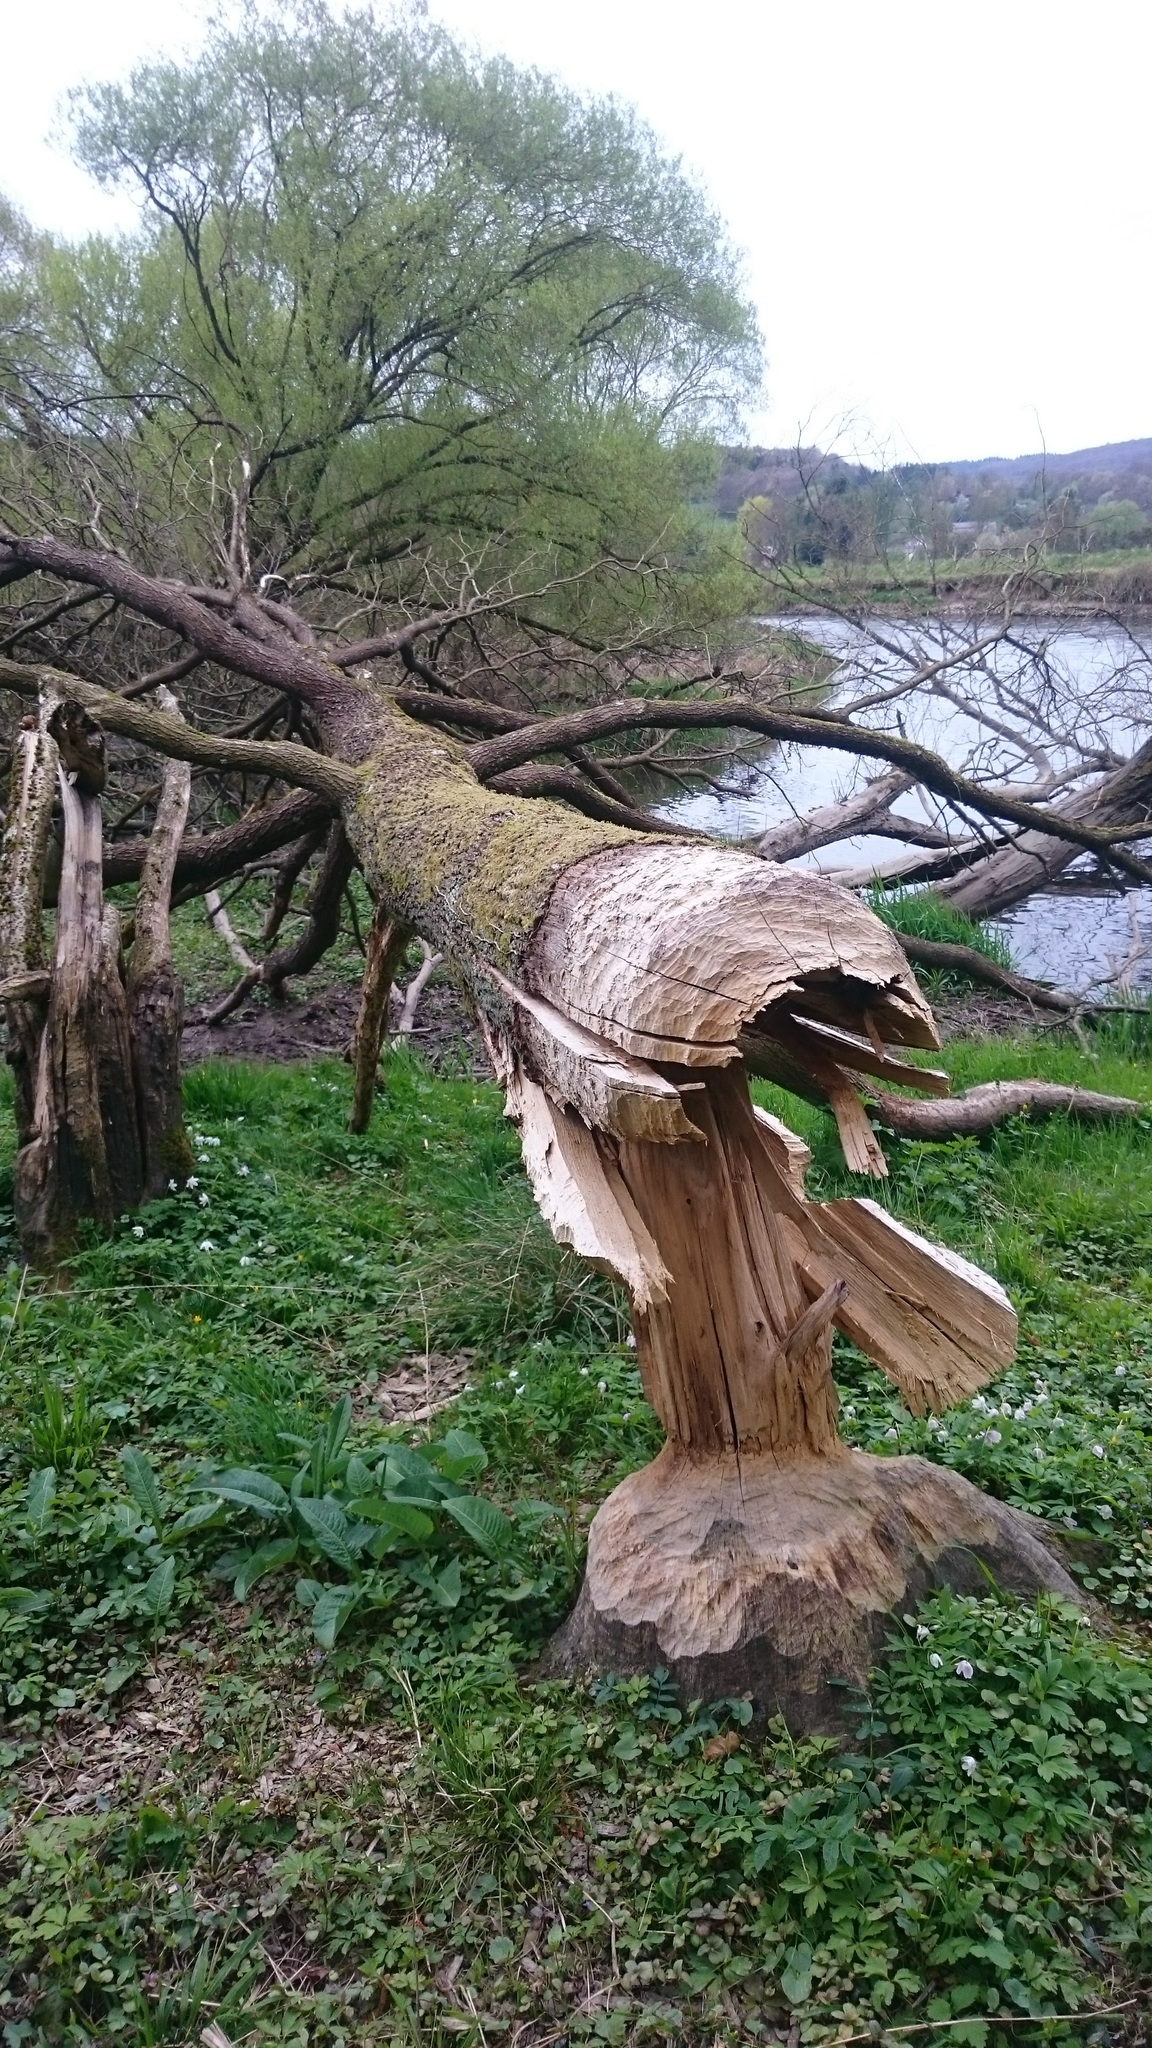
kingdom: Animalia
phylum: Chordata
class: Mammalia
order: Rodentia
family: Castoridae
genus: Castor
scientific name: Castor fiber
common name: Eurasian beaver
